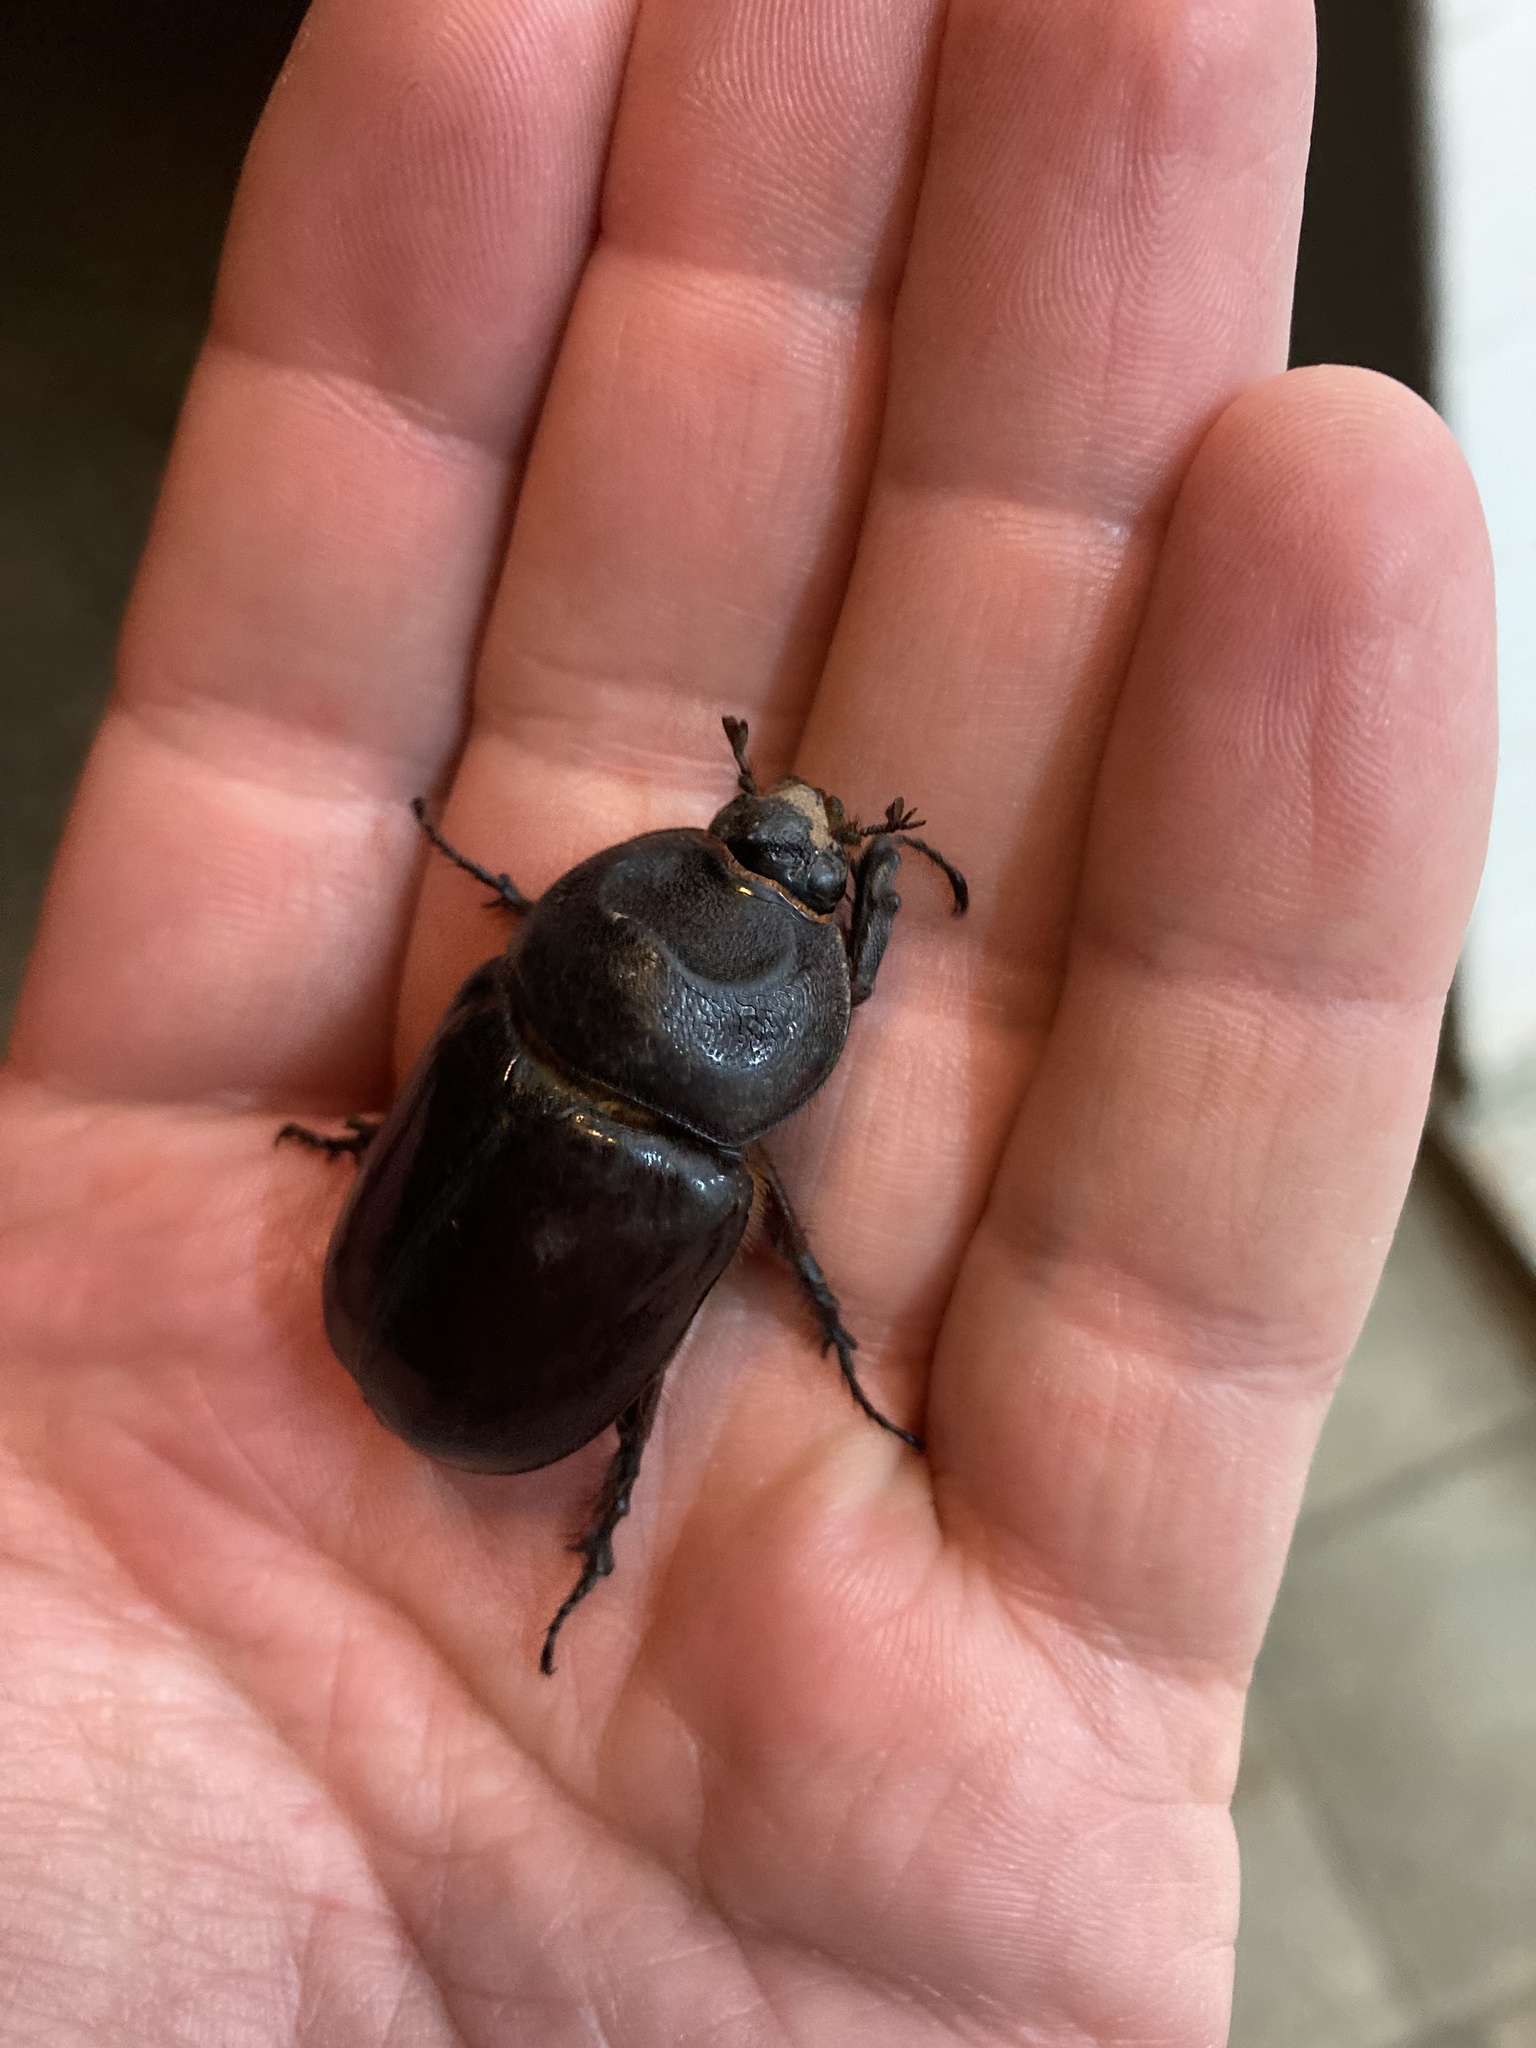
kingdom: Animalia
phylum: Arthropoda
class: Insecta
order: Coleoptera
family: Scarabaeidae
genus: Oryctes
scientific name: Oryctes nasicornis
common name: European rhinoceros beetle
